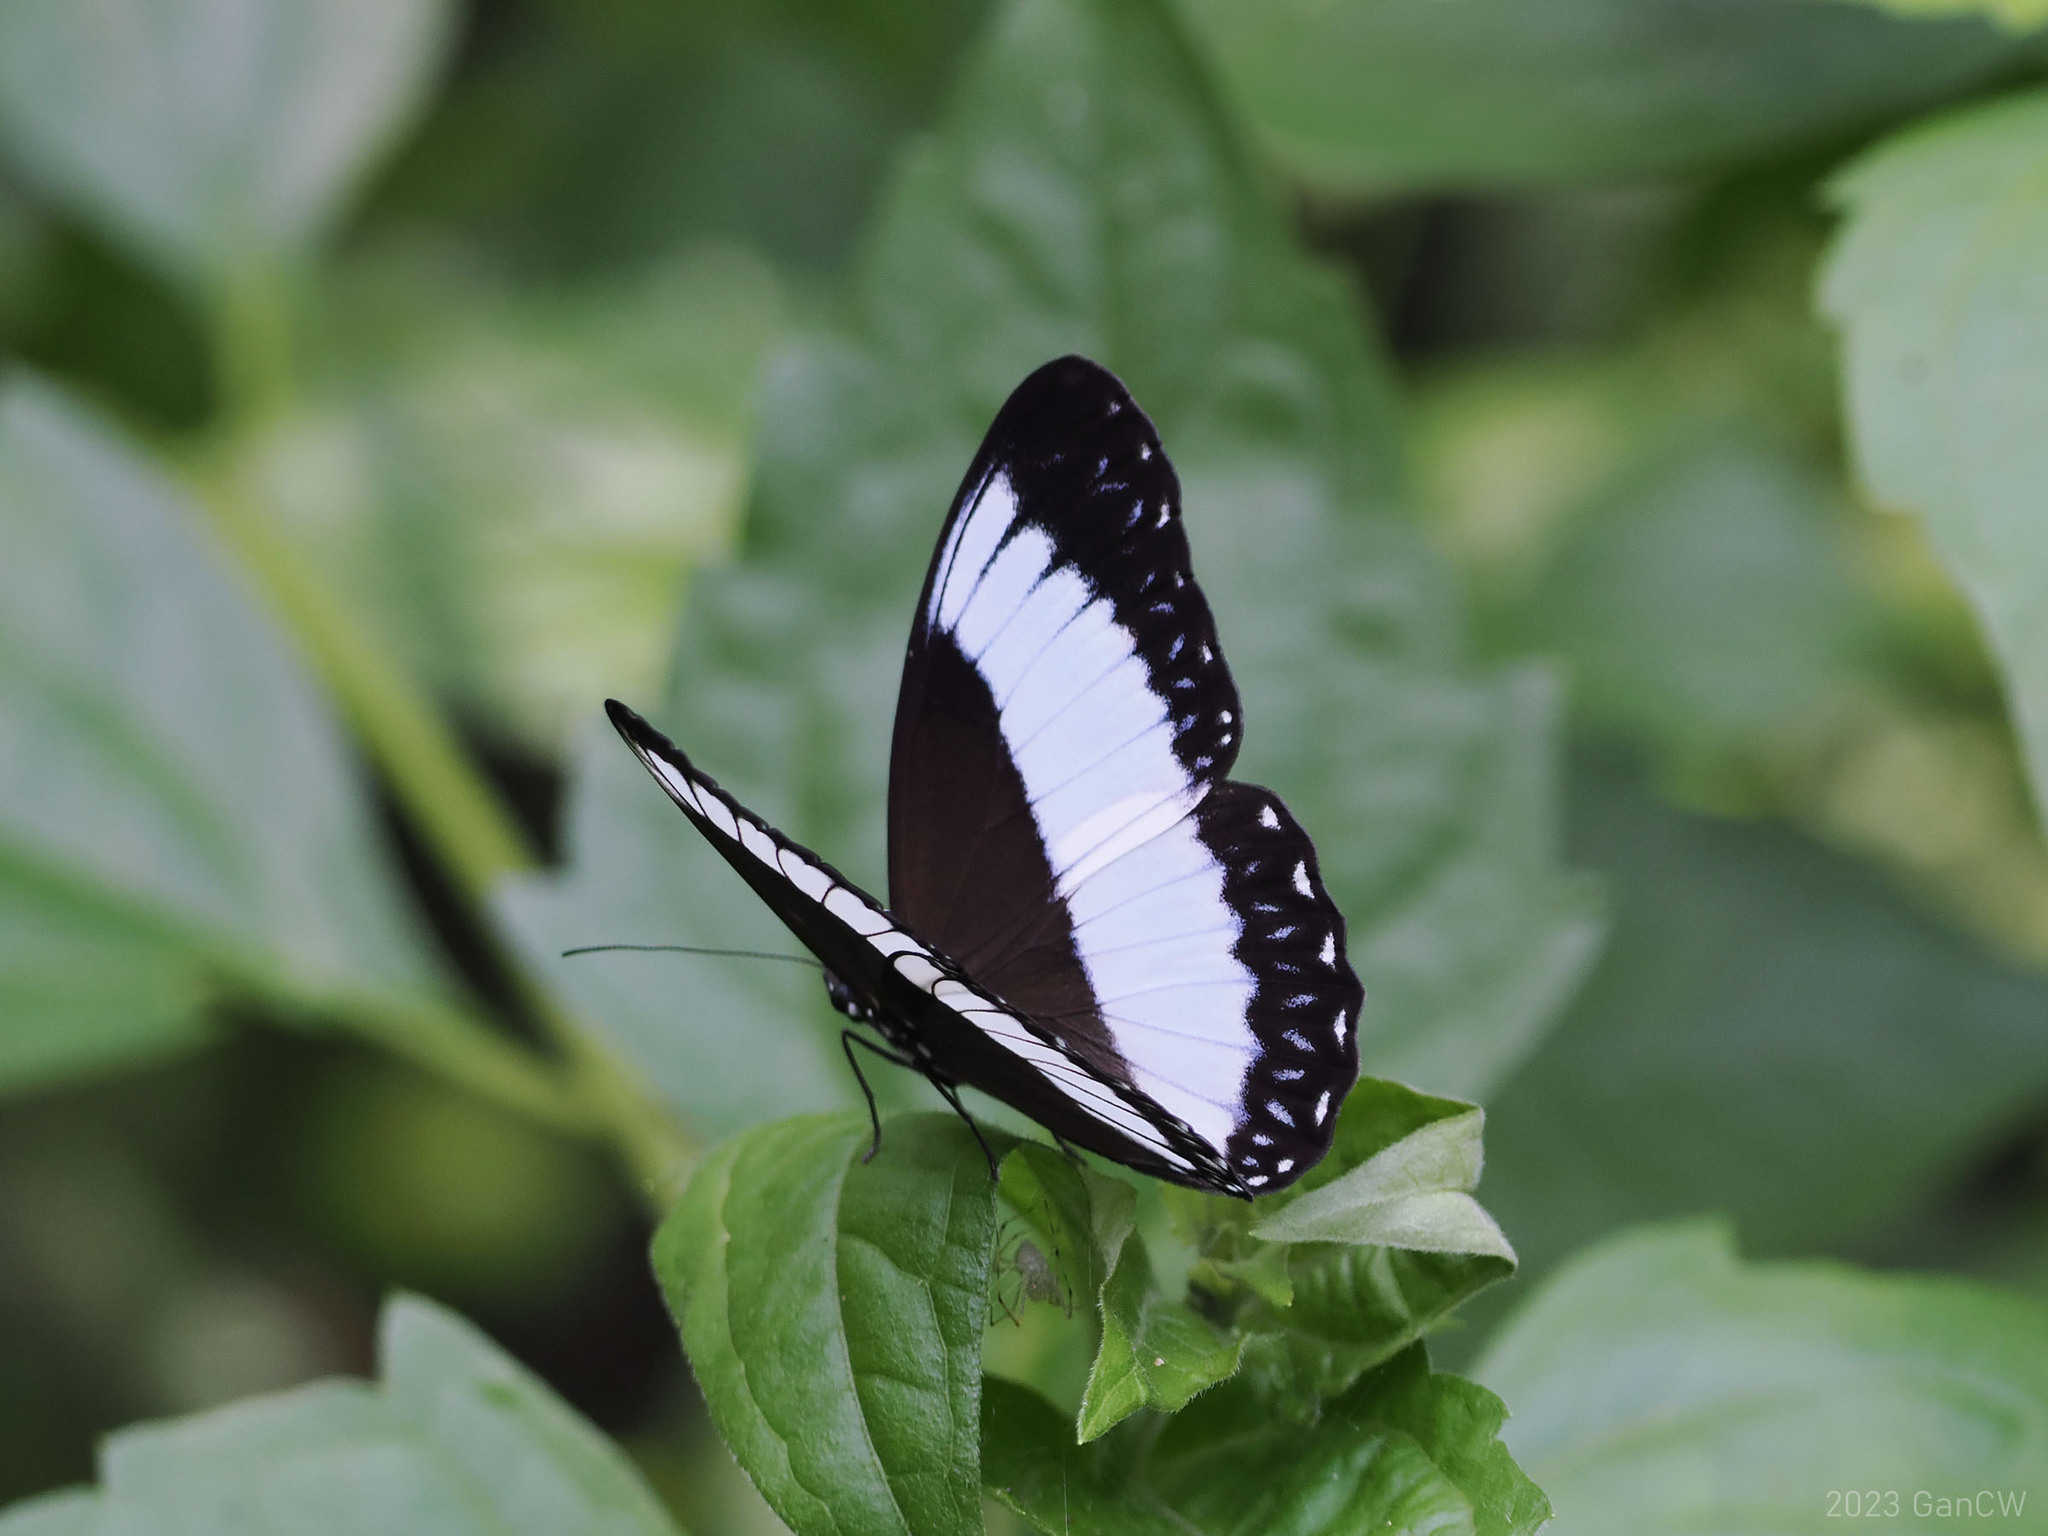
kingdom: Animalia
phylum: Arthropoda
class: Insecta
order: Lepidoptera
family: Nymphalidae
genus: Zethera
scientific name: Zethera pimplea
